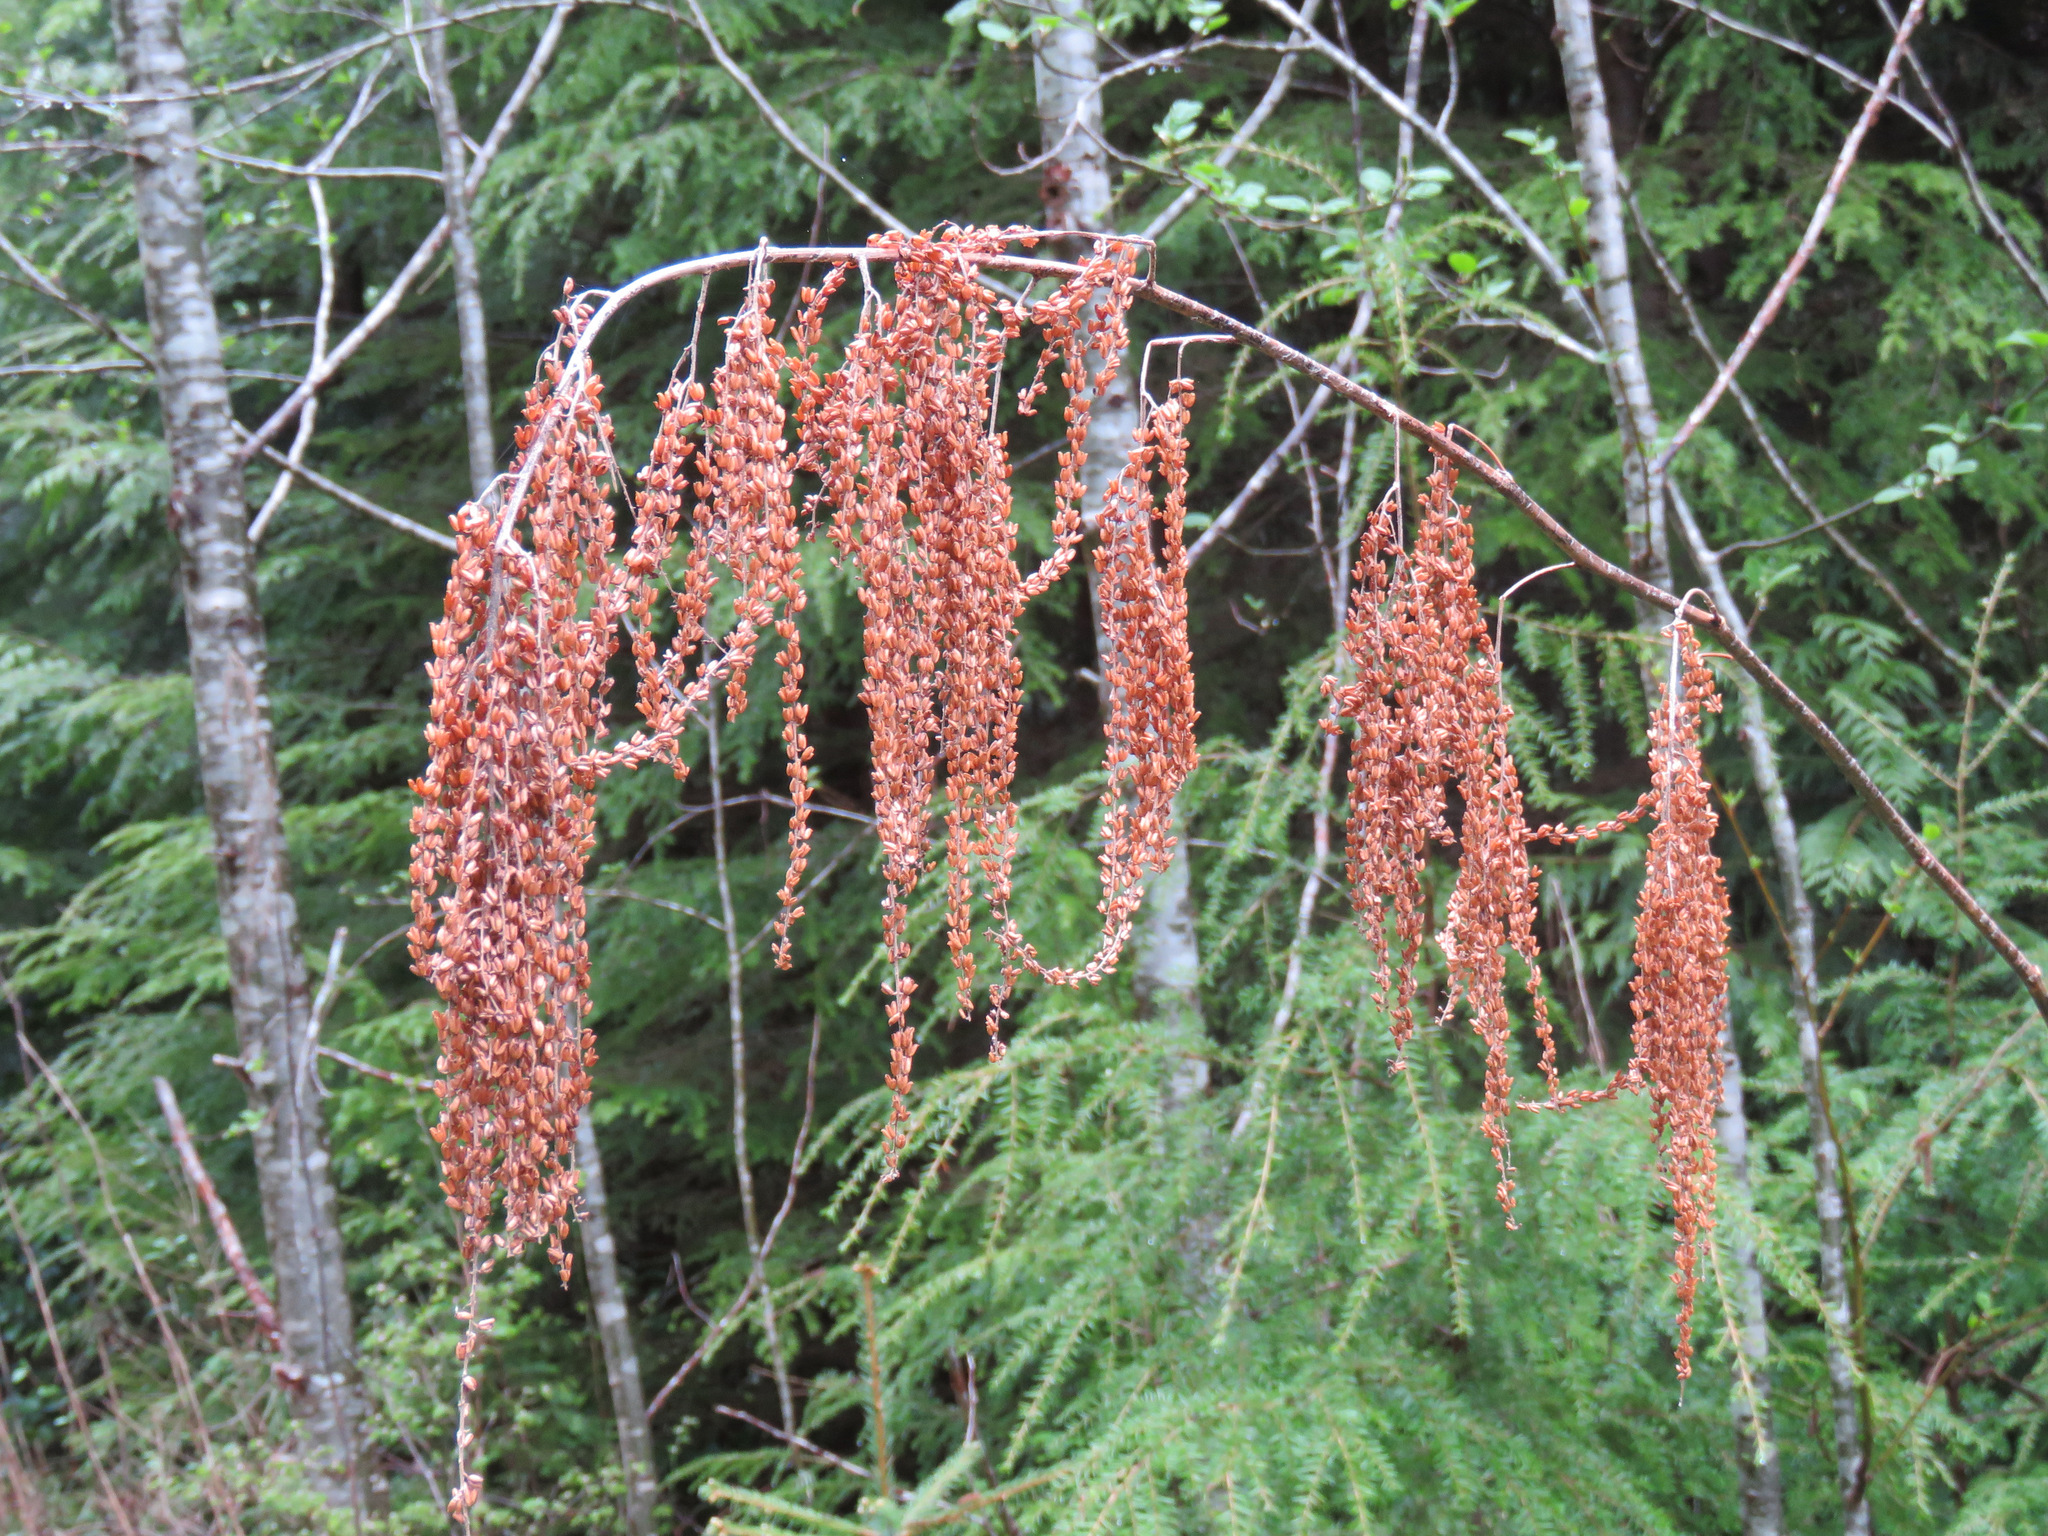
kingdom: Plantae
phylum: Tracheophyta
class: Magnoliopsida
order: Rosales
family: Rosaceae
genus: Aruncus
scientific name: Aruncus dioicus
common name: Buck's-beard
